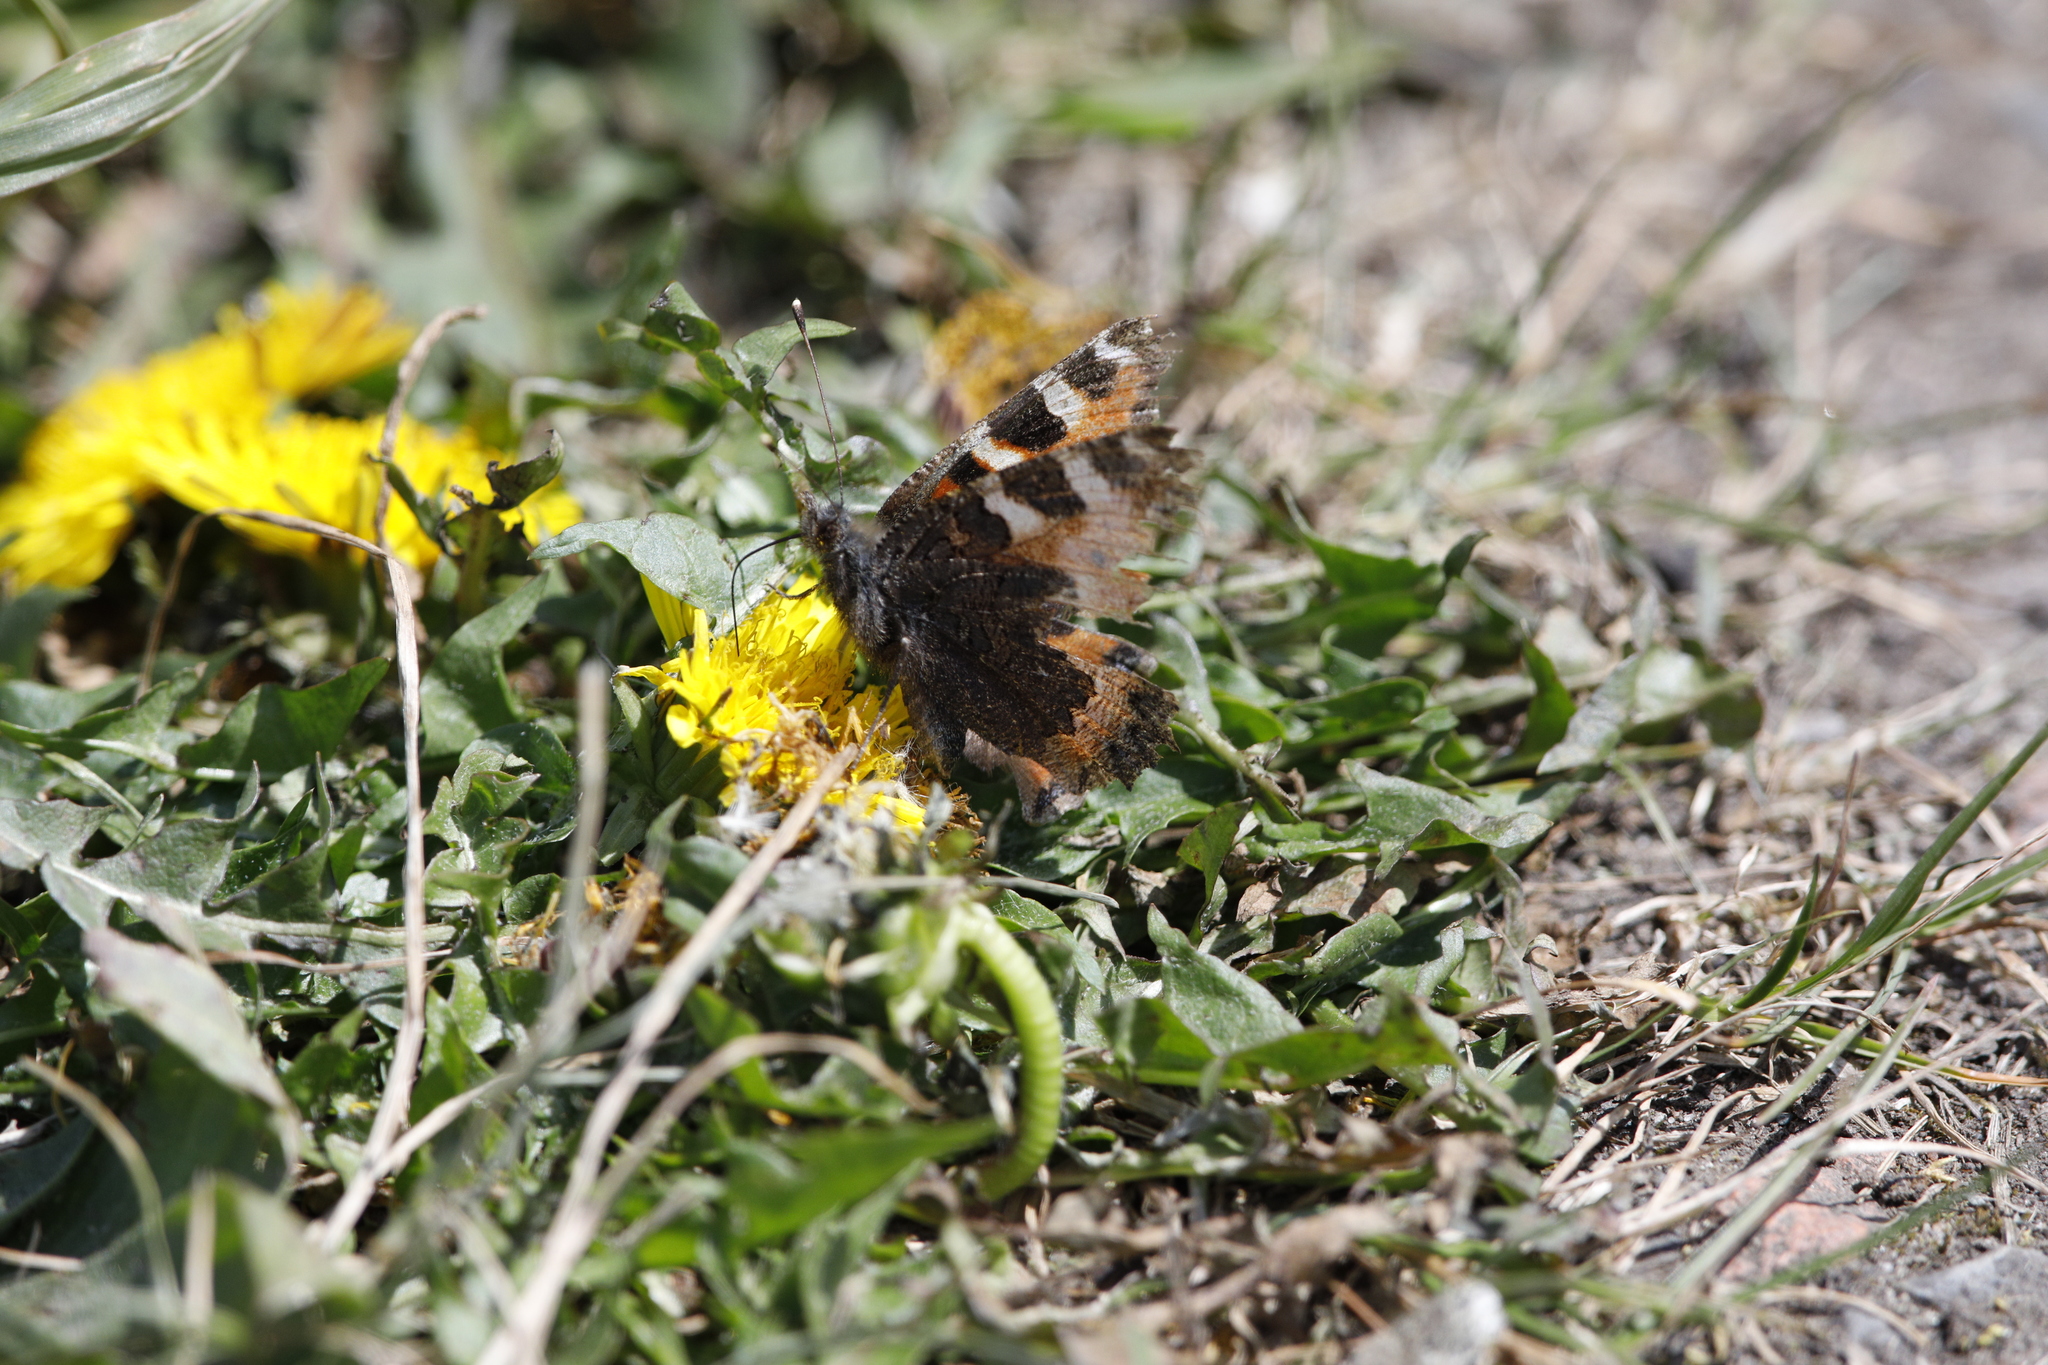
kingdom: Animalia
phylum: Arthropoda
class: Insecta
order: Lepidoptera
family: Nymphalidae
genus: Aglais
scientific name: Aglais urticae
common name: Small tortoiseshell
